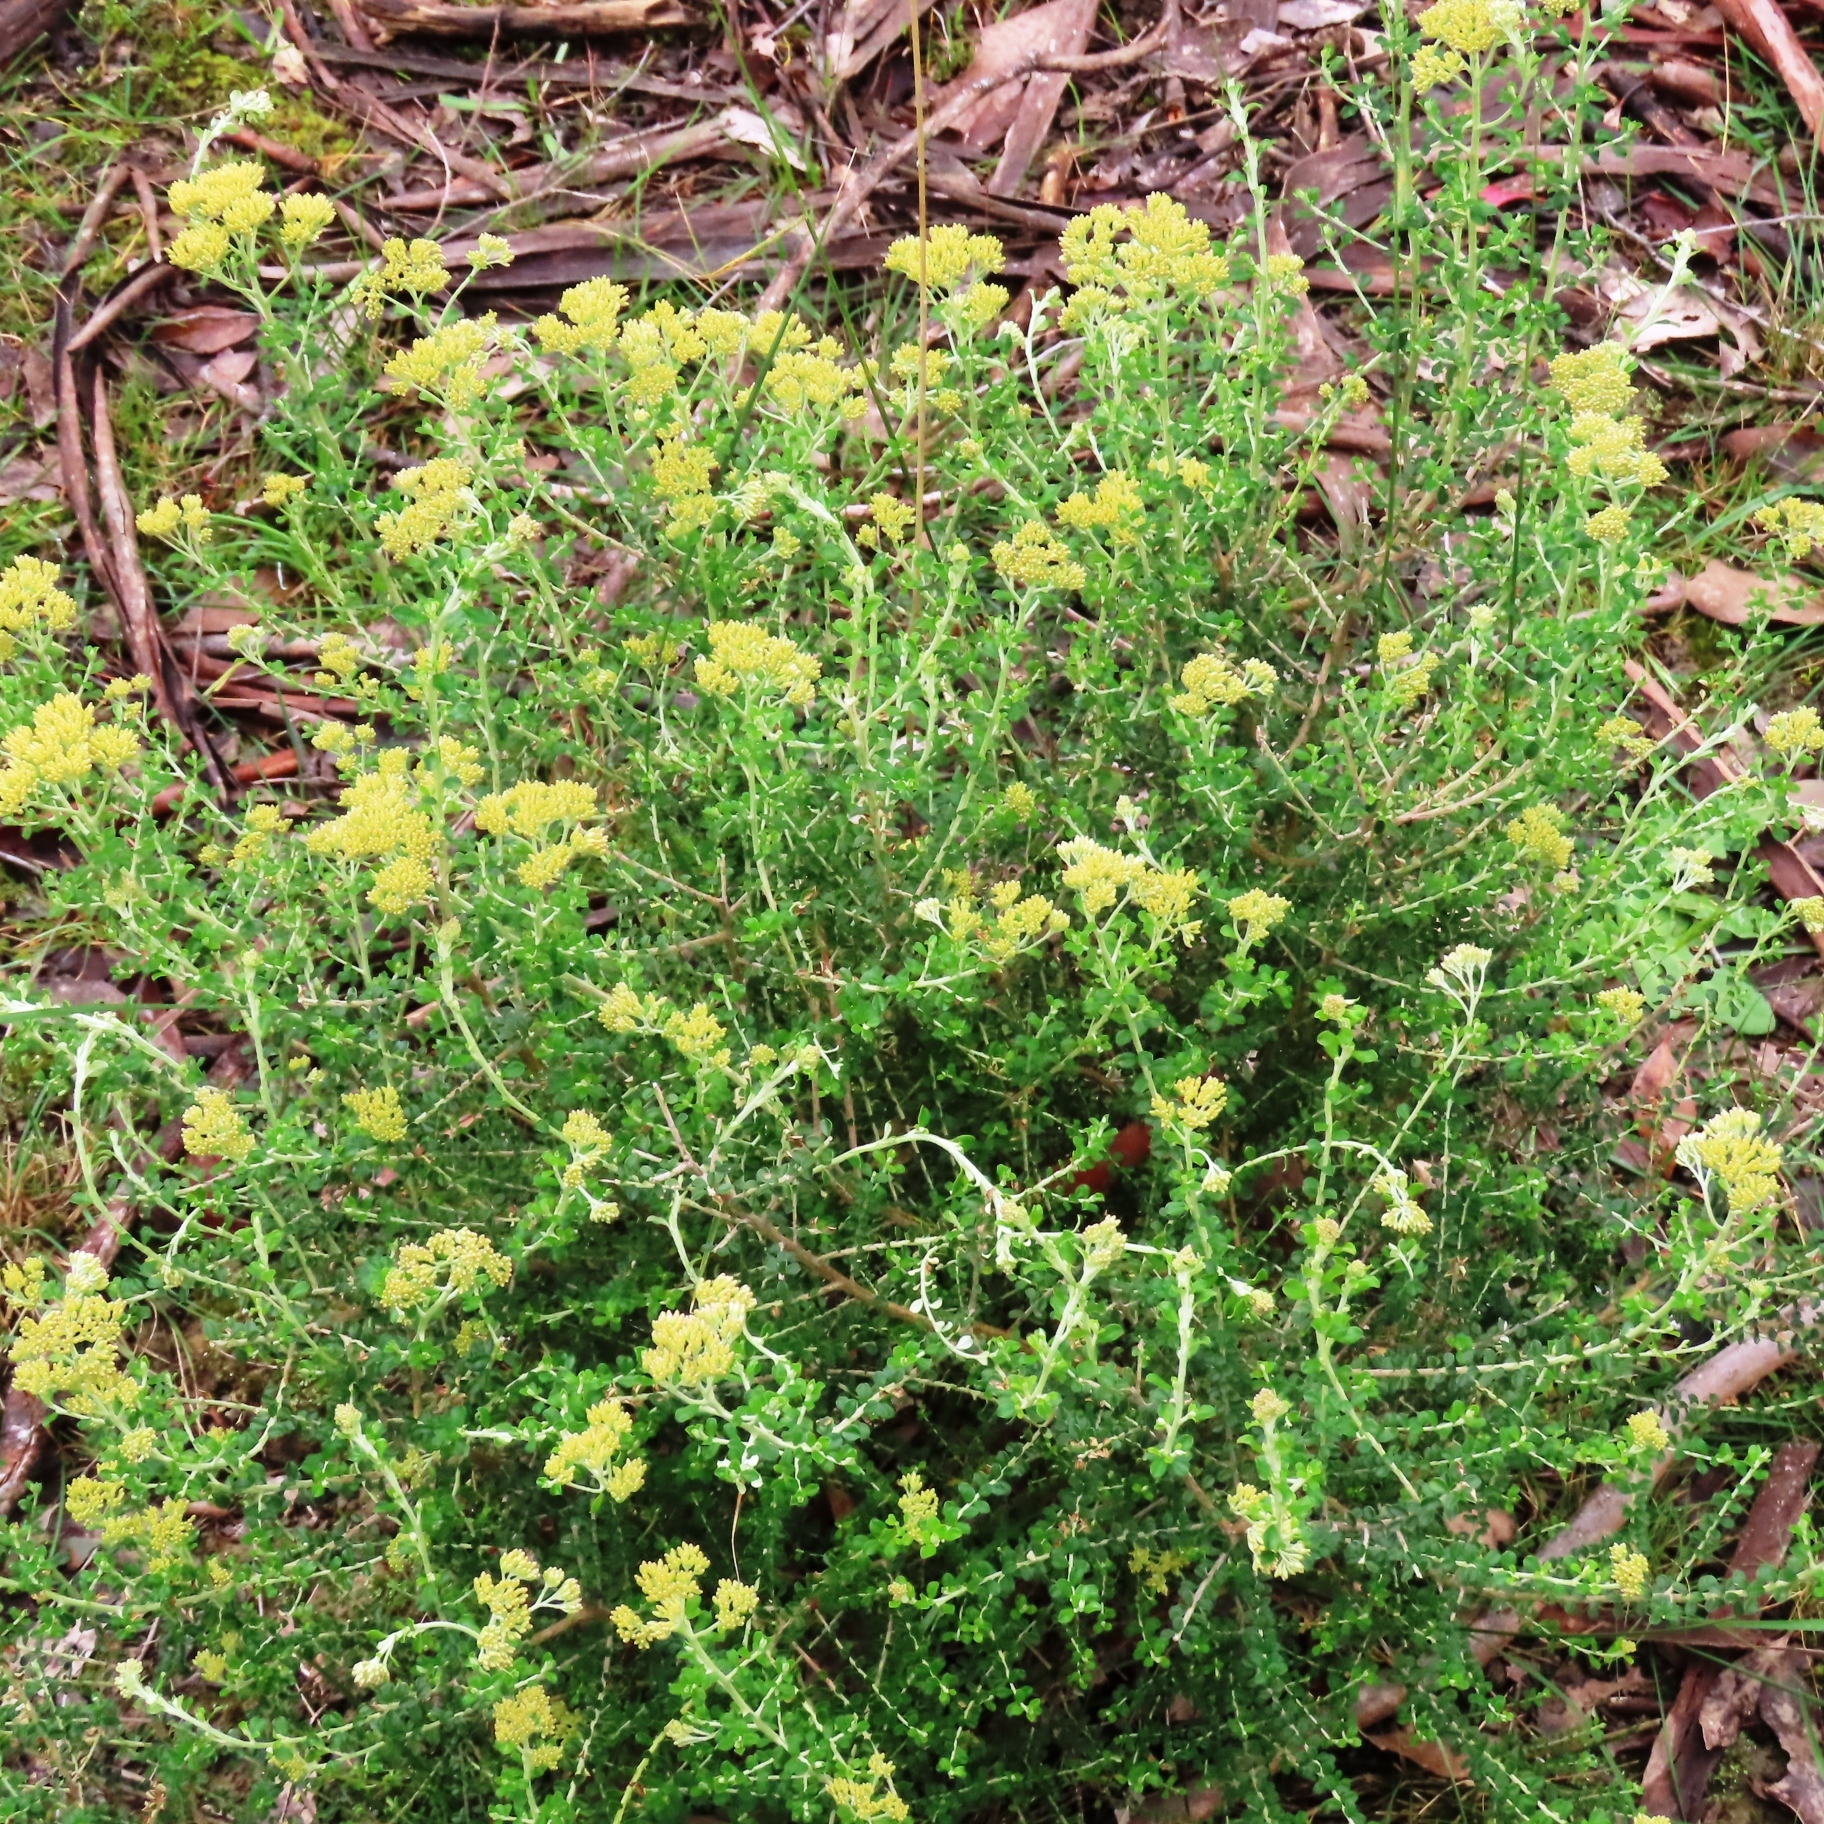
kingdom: Plantae
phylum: Tracheophyta
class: Magnoliopsida
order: Asterales
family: Asteraceae
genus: Ozothamnus
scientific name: Ozothamnus obcordatus
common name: Grey everlasting
